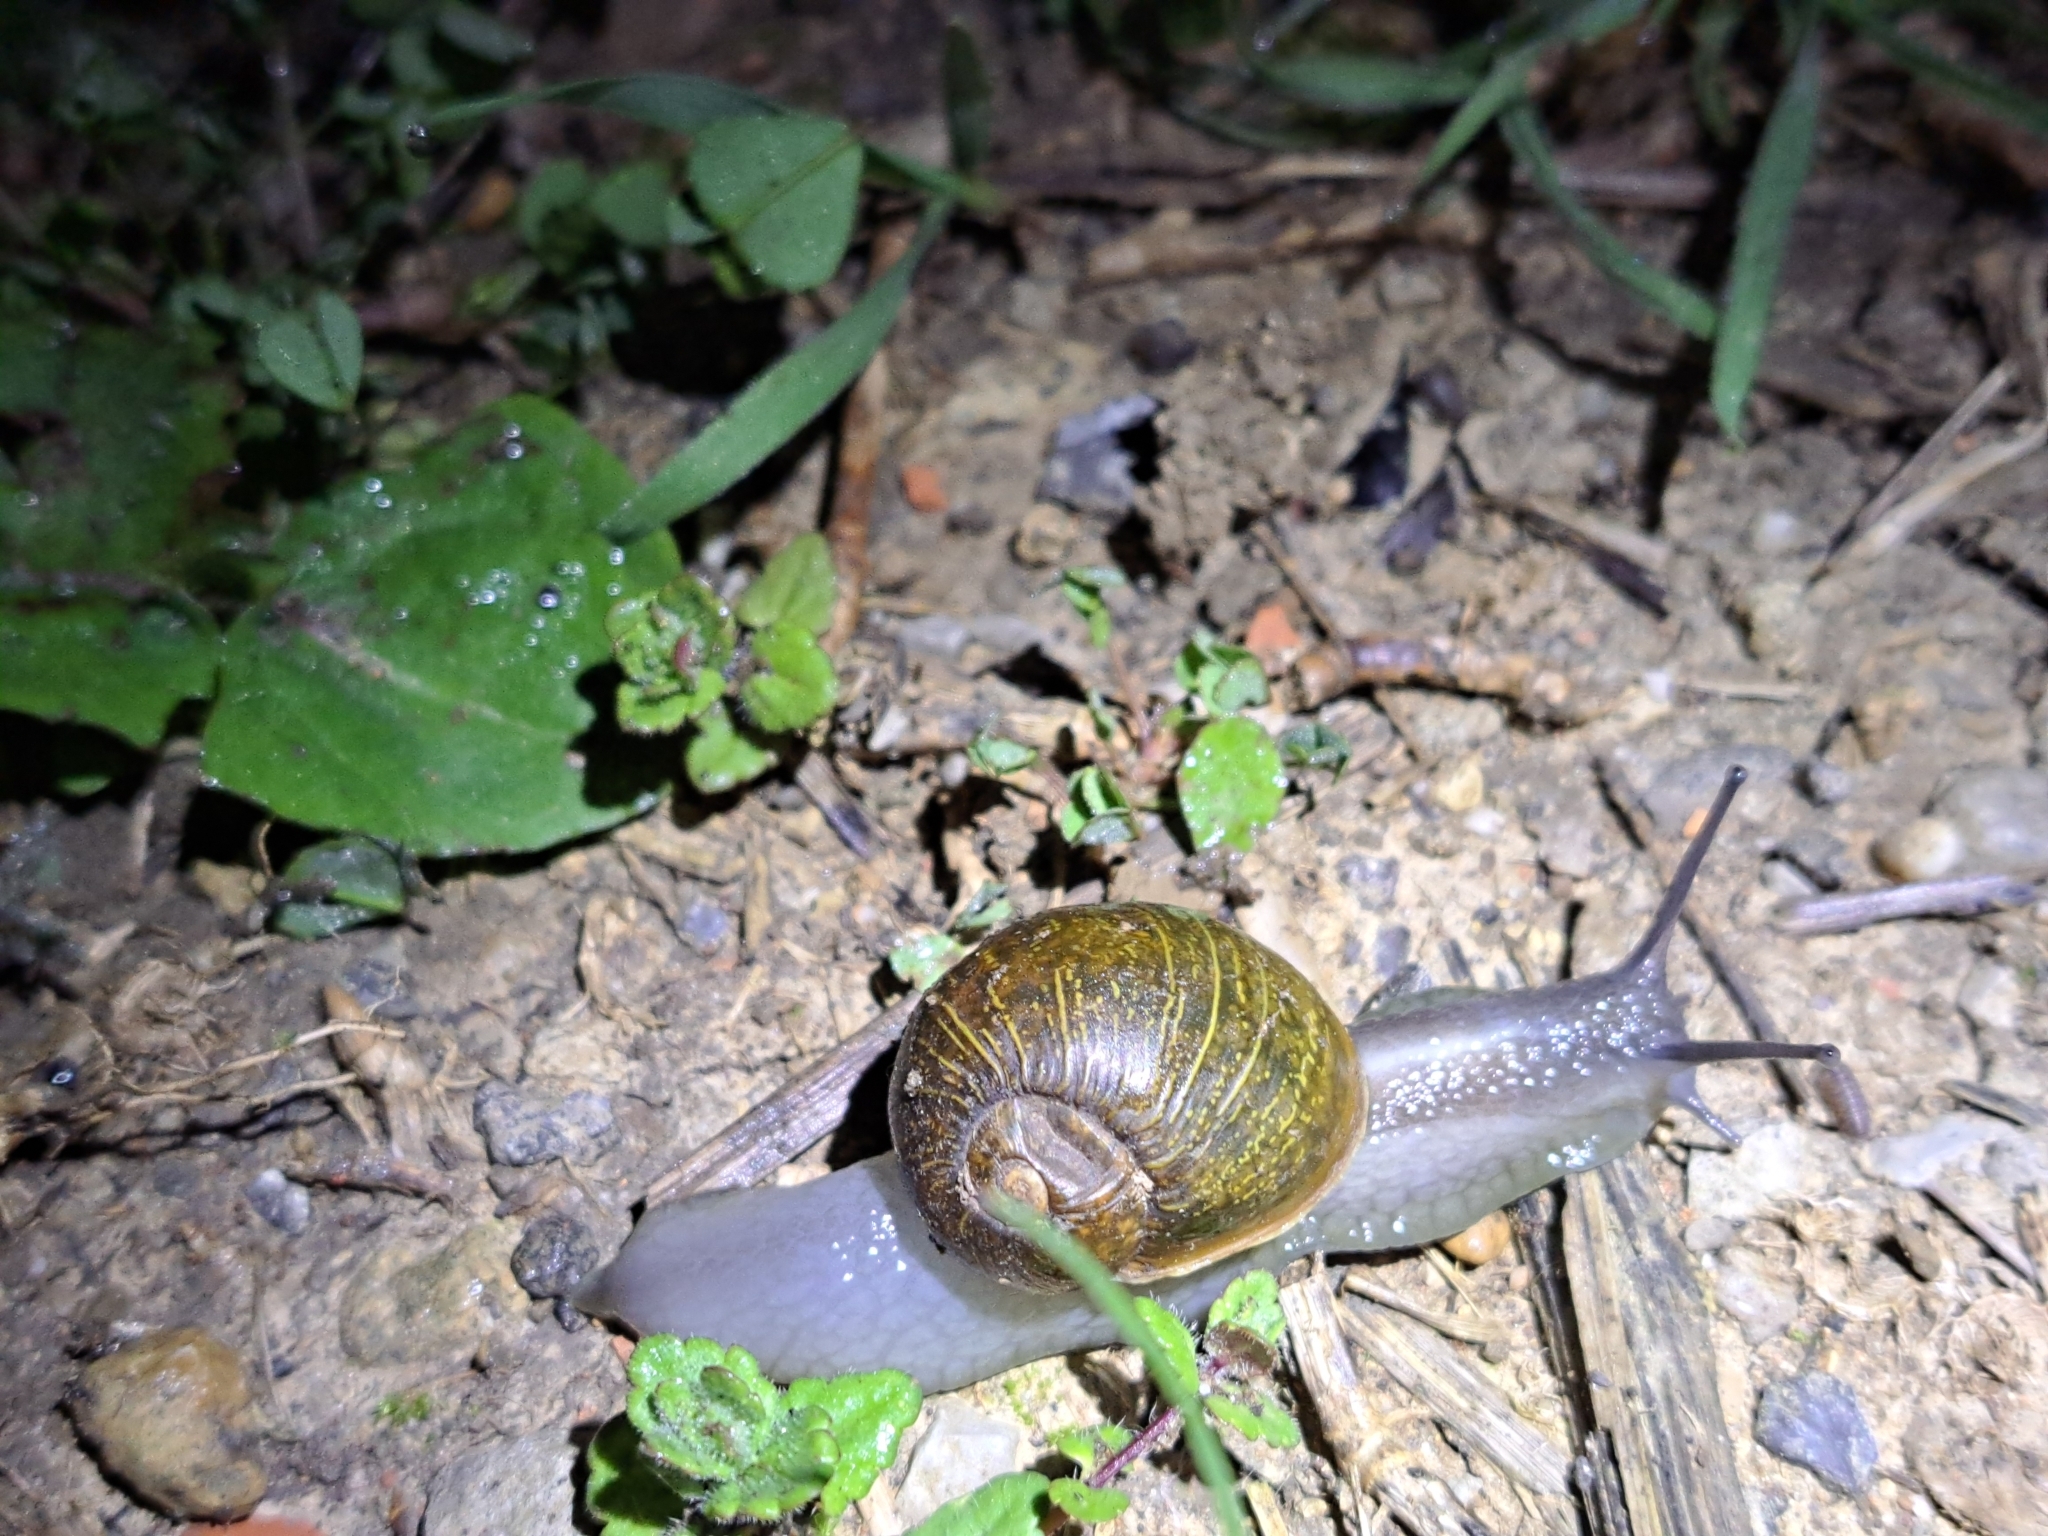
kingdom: Animalia
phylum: Mollusca
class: Gastropoda
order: Stylommatophora
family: Helicidae
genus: Cantareus
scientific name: Cantareus apertus
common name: Green gardensnail
